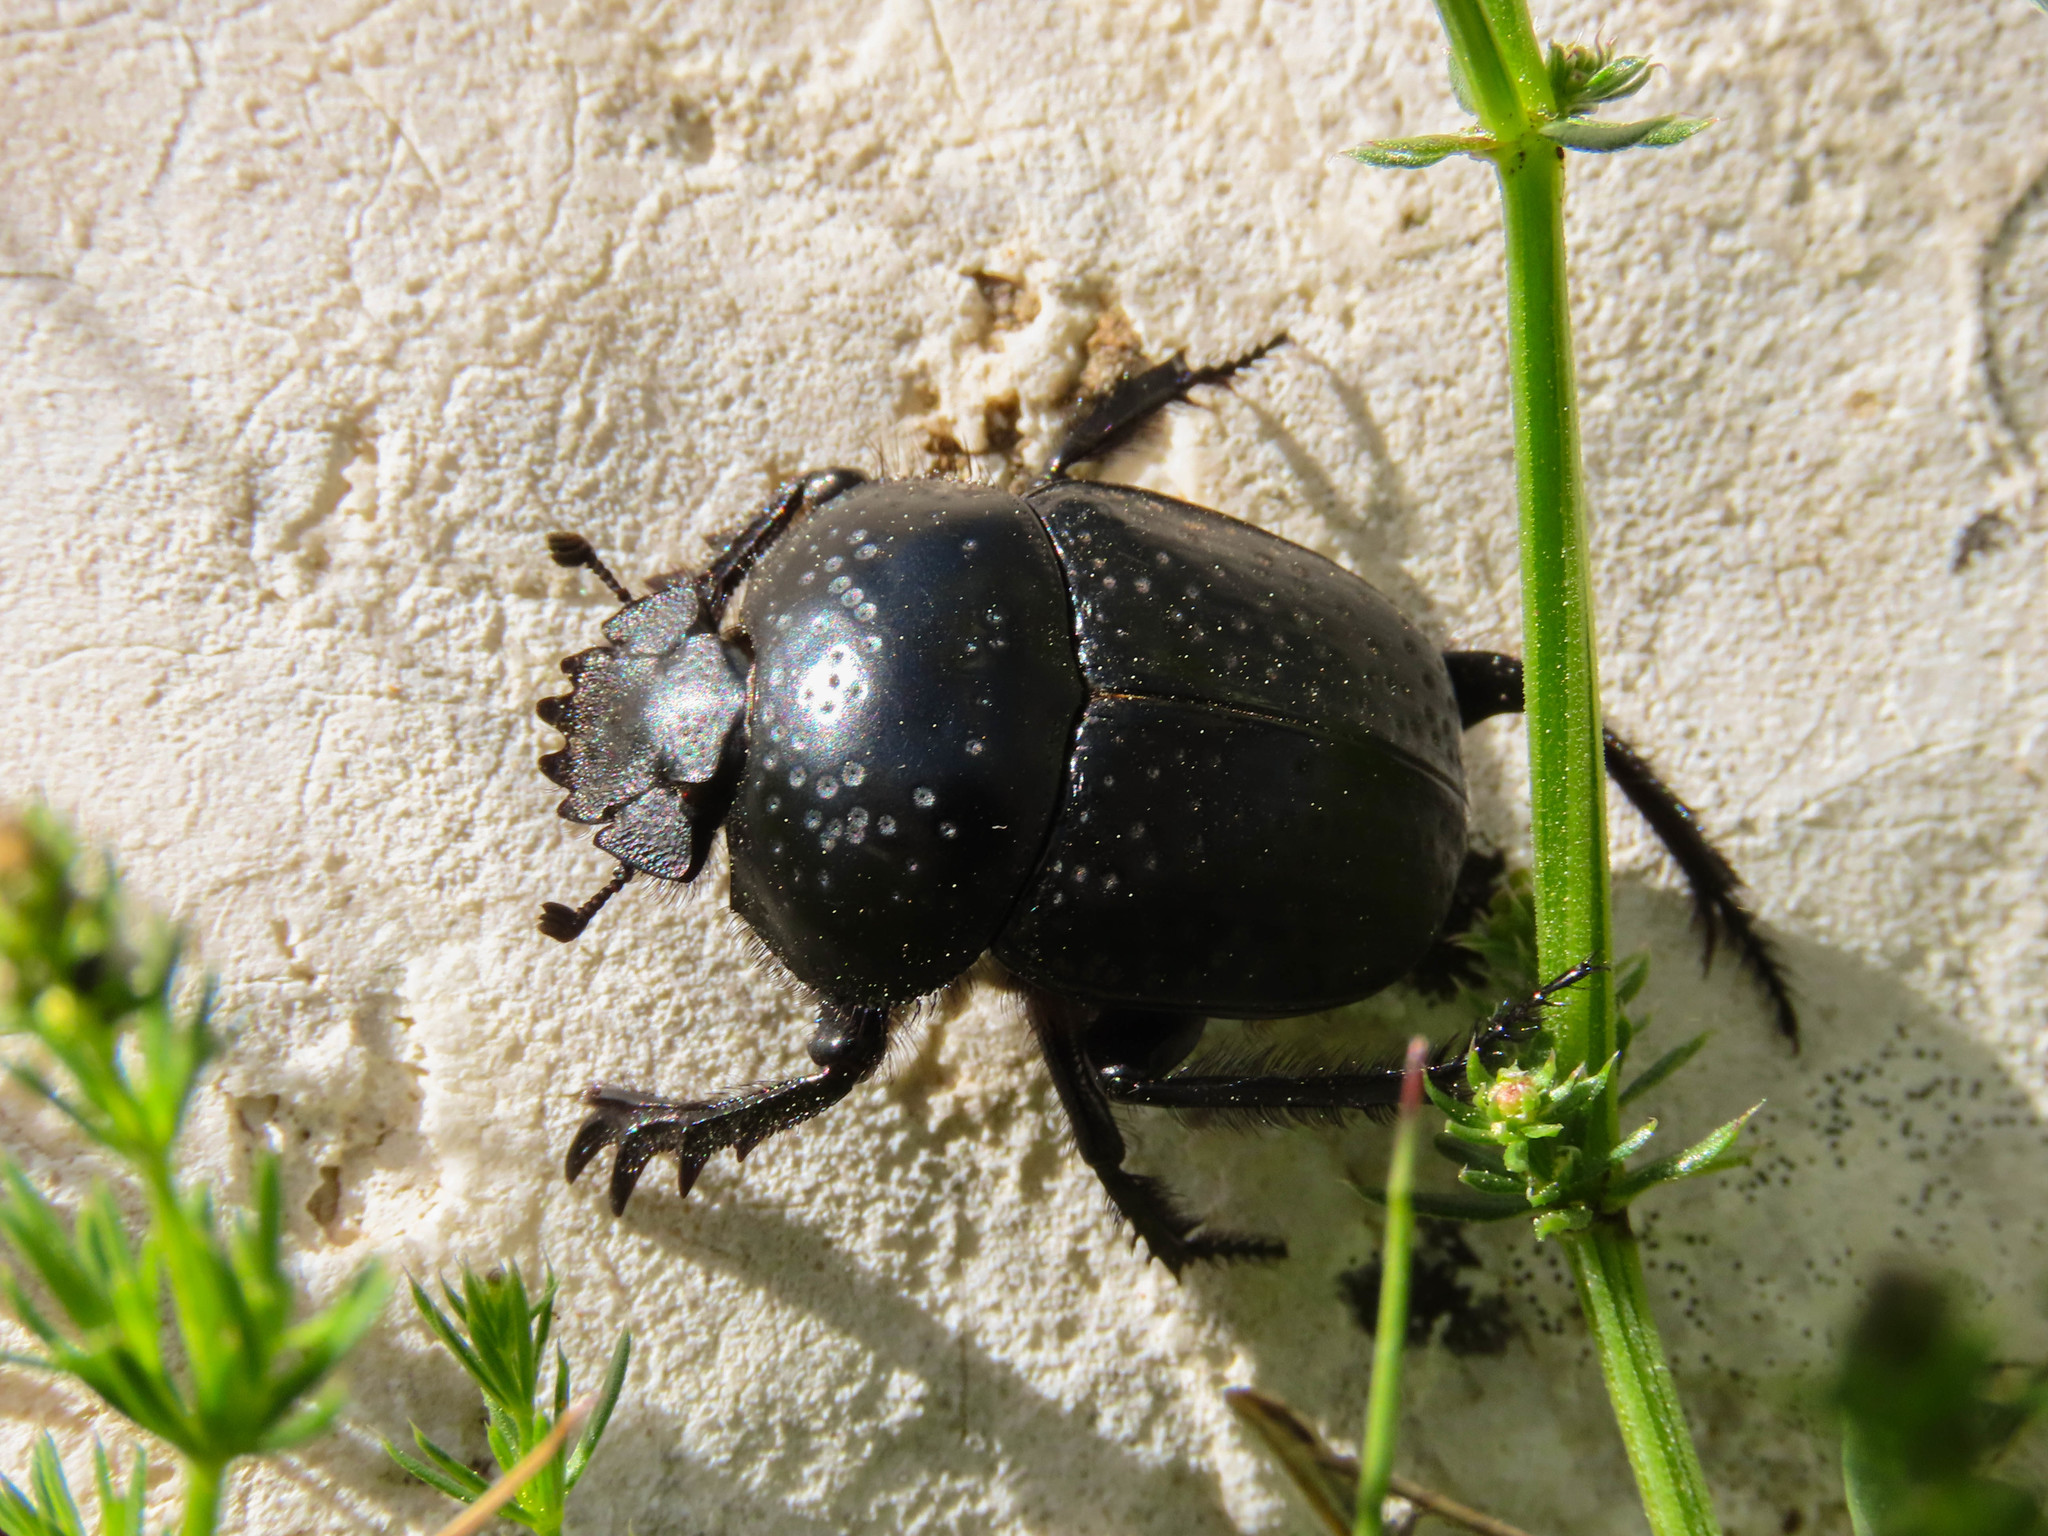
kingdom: Animalia
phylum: Arthropoda
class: Insecta
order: Coleoptera
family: Scarabaeidae
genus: Ateuchetus
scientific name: Ateuchetus
